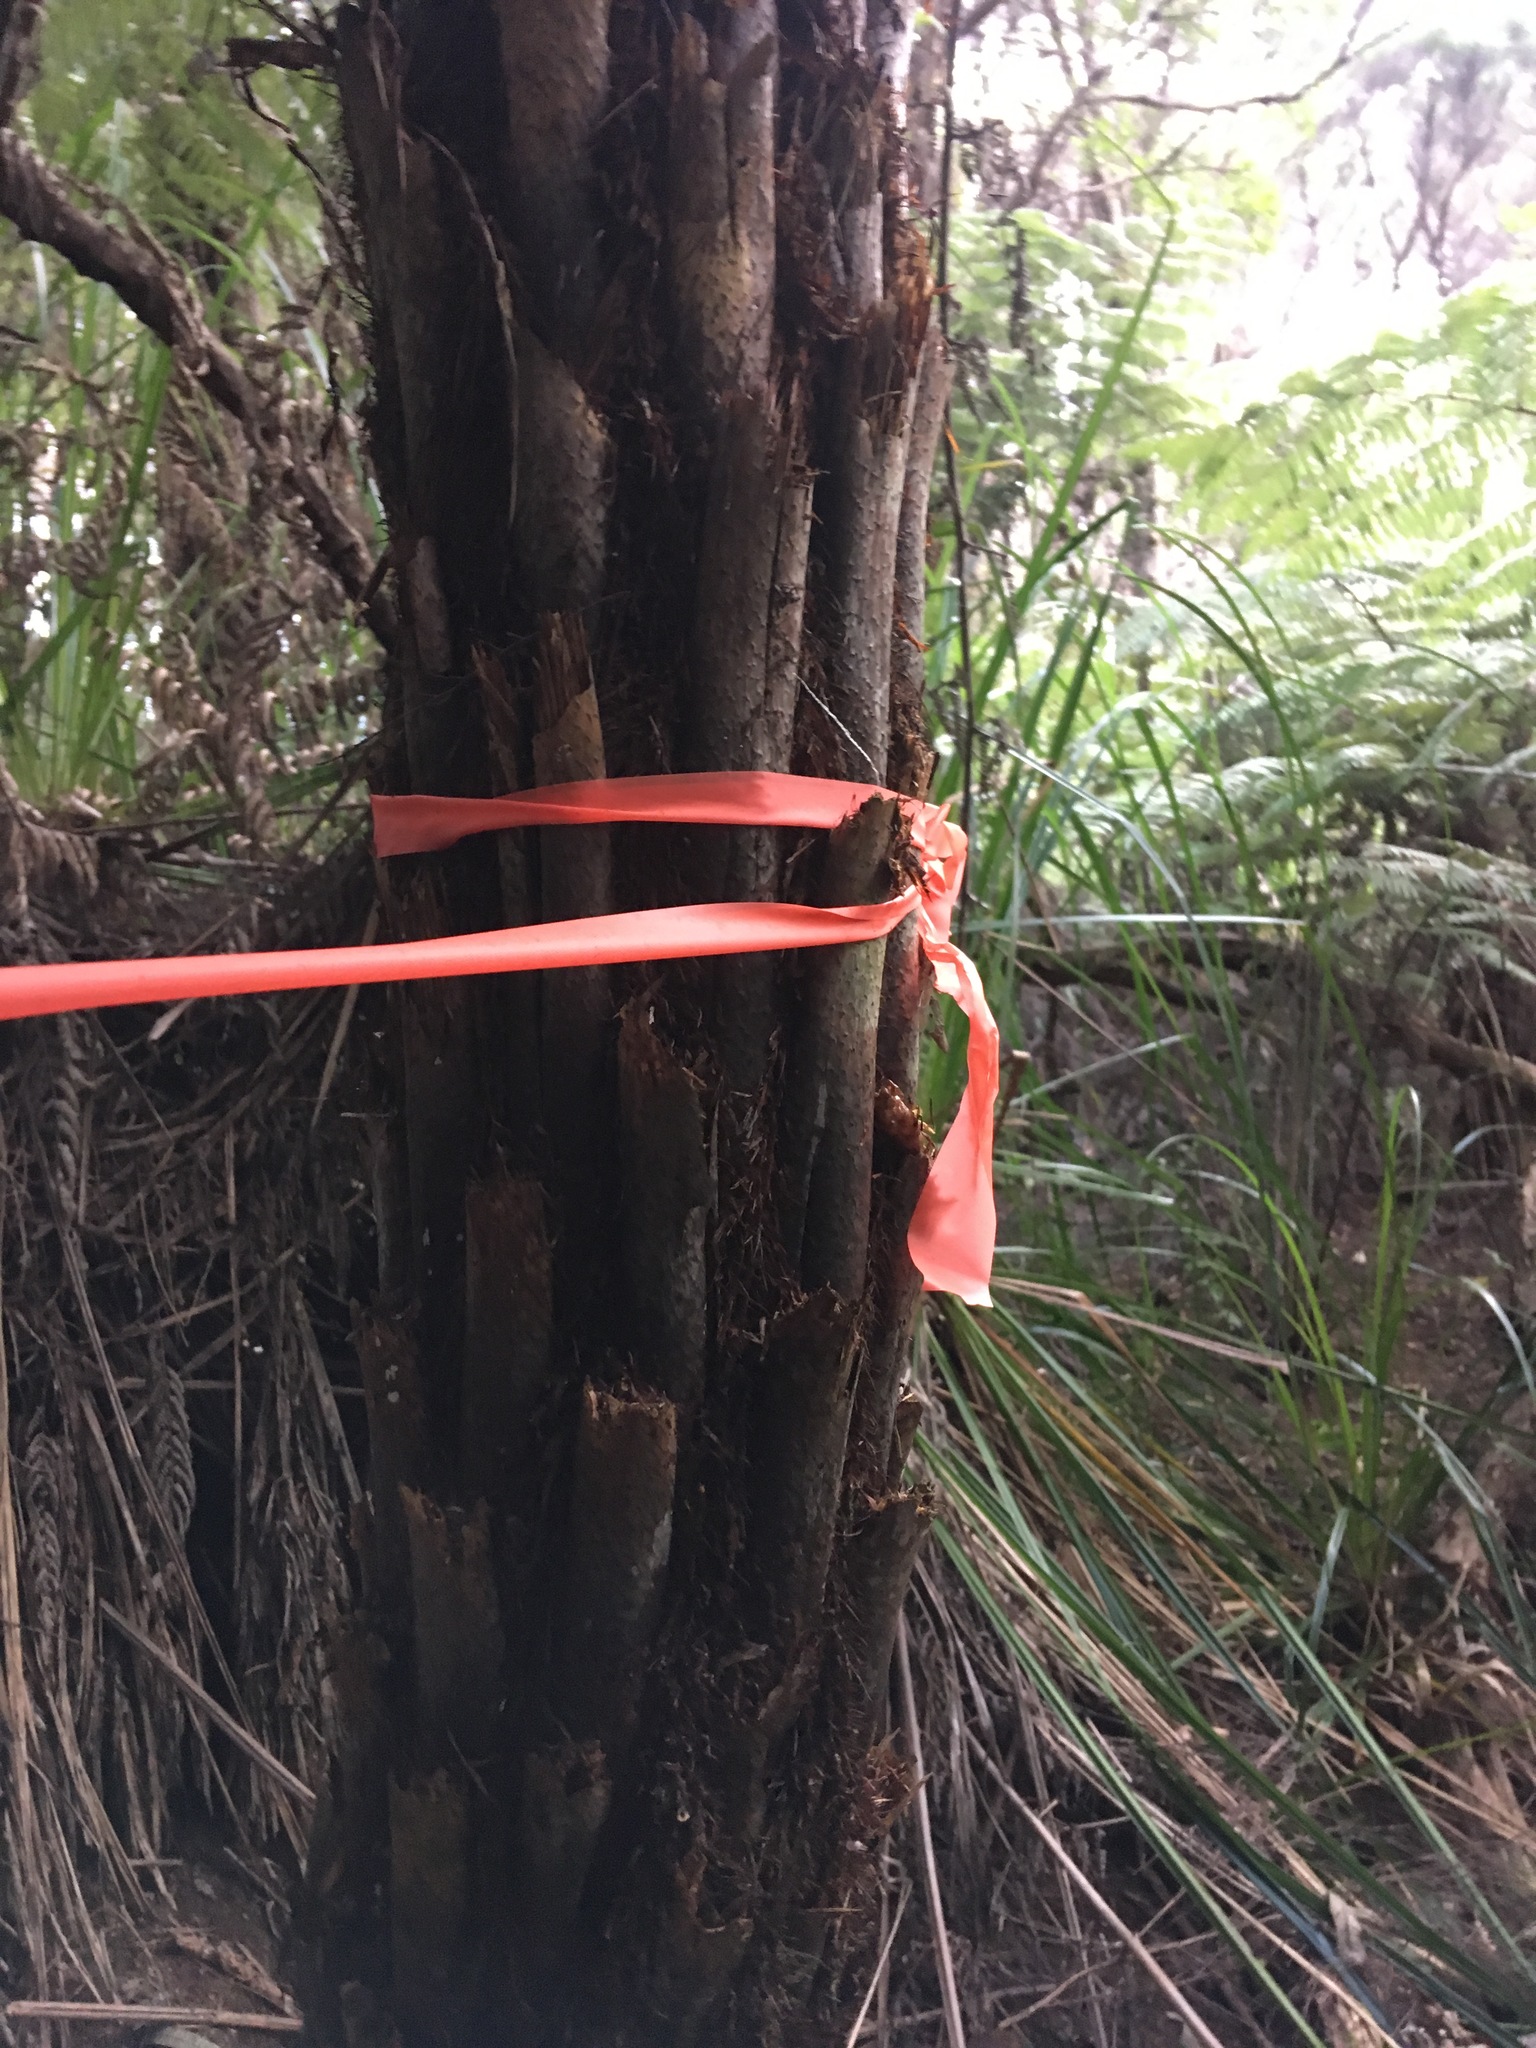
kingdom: Plantae
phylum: Tracheophyta
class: Polypodiopsida
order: Cyatheales
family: Cyatheaceae
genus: Alsophila
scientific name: Alsophila dealbata
